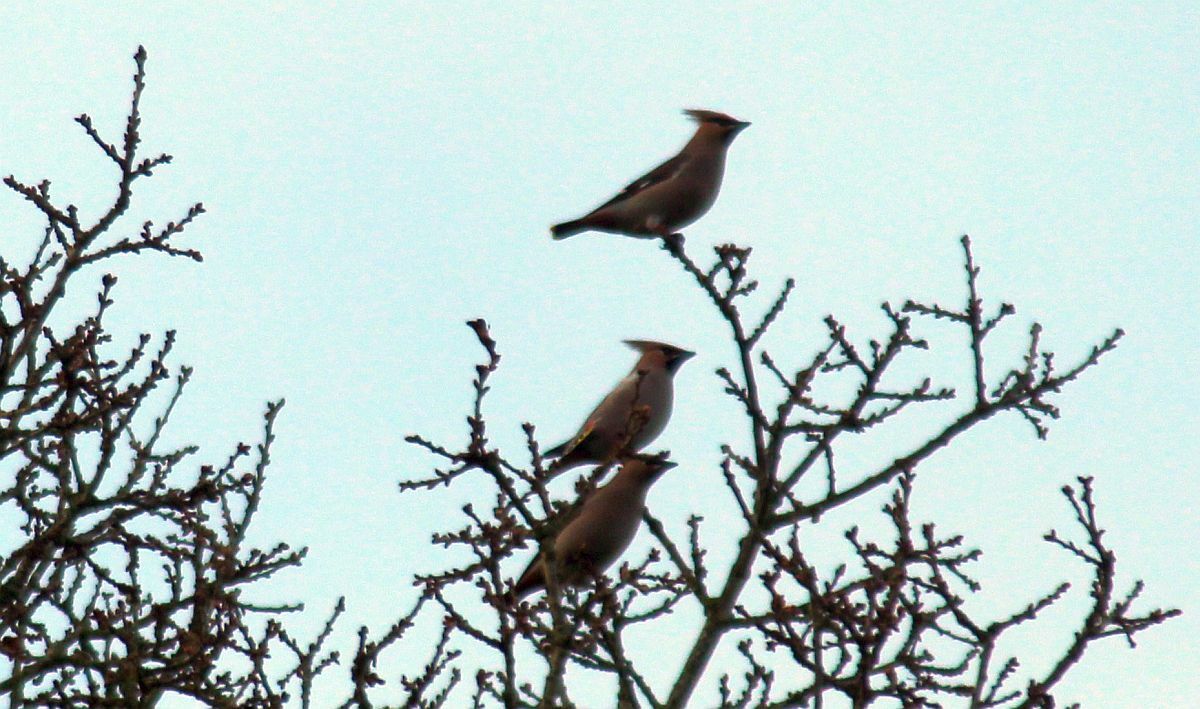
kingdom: Animalia
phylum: Chordata
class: Aves
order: Passeriformes
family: Bombycillidae
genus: Bombycilla
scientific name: Bombycilla garrulus
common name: Bohemian waxwing
